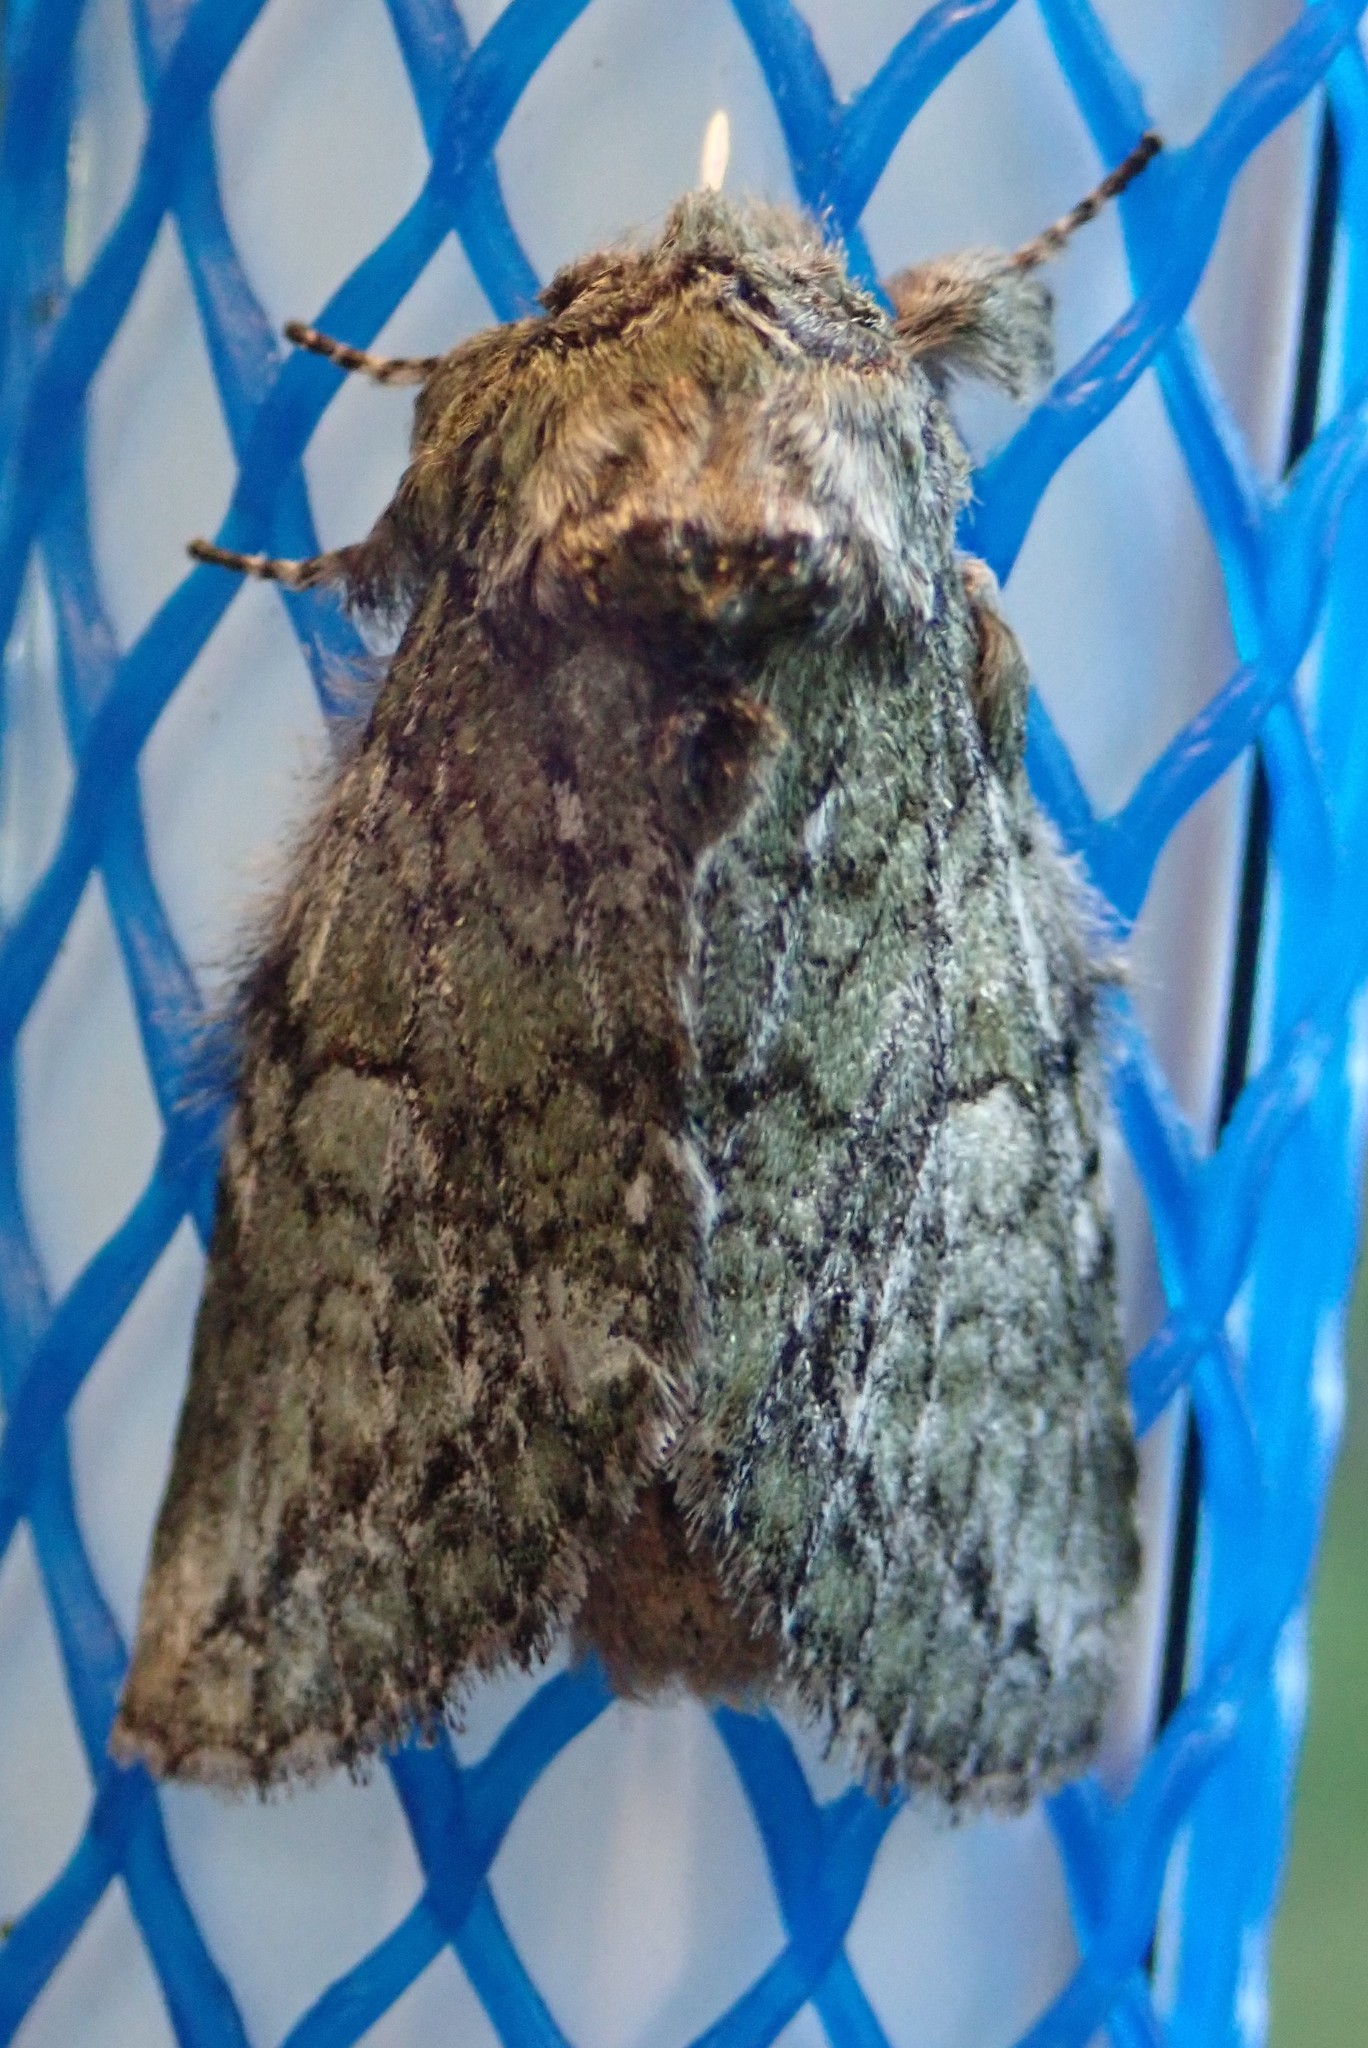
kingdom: Animalia
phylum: Arthropoda
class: Insecta
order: Lepidoptera
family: Notodontidae
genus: Heterocampa
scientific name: Heterocampa
